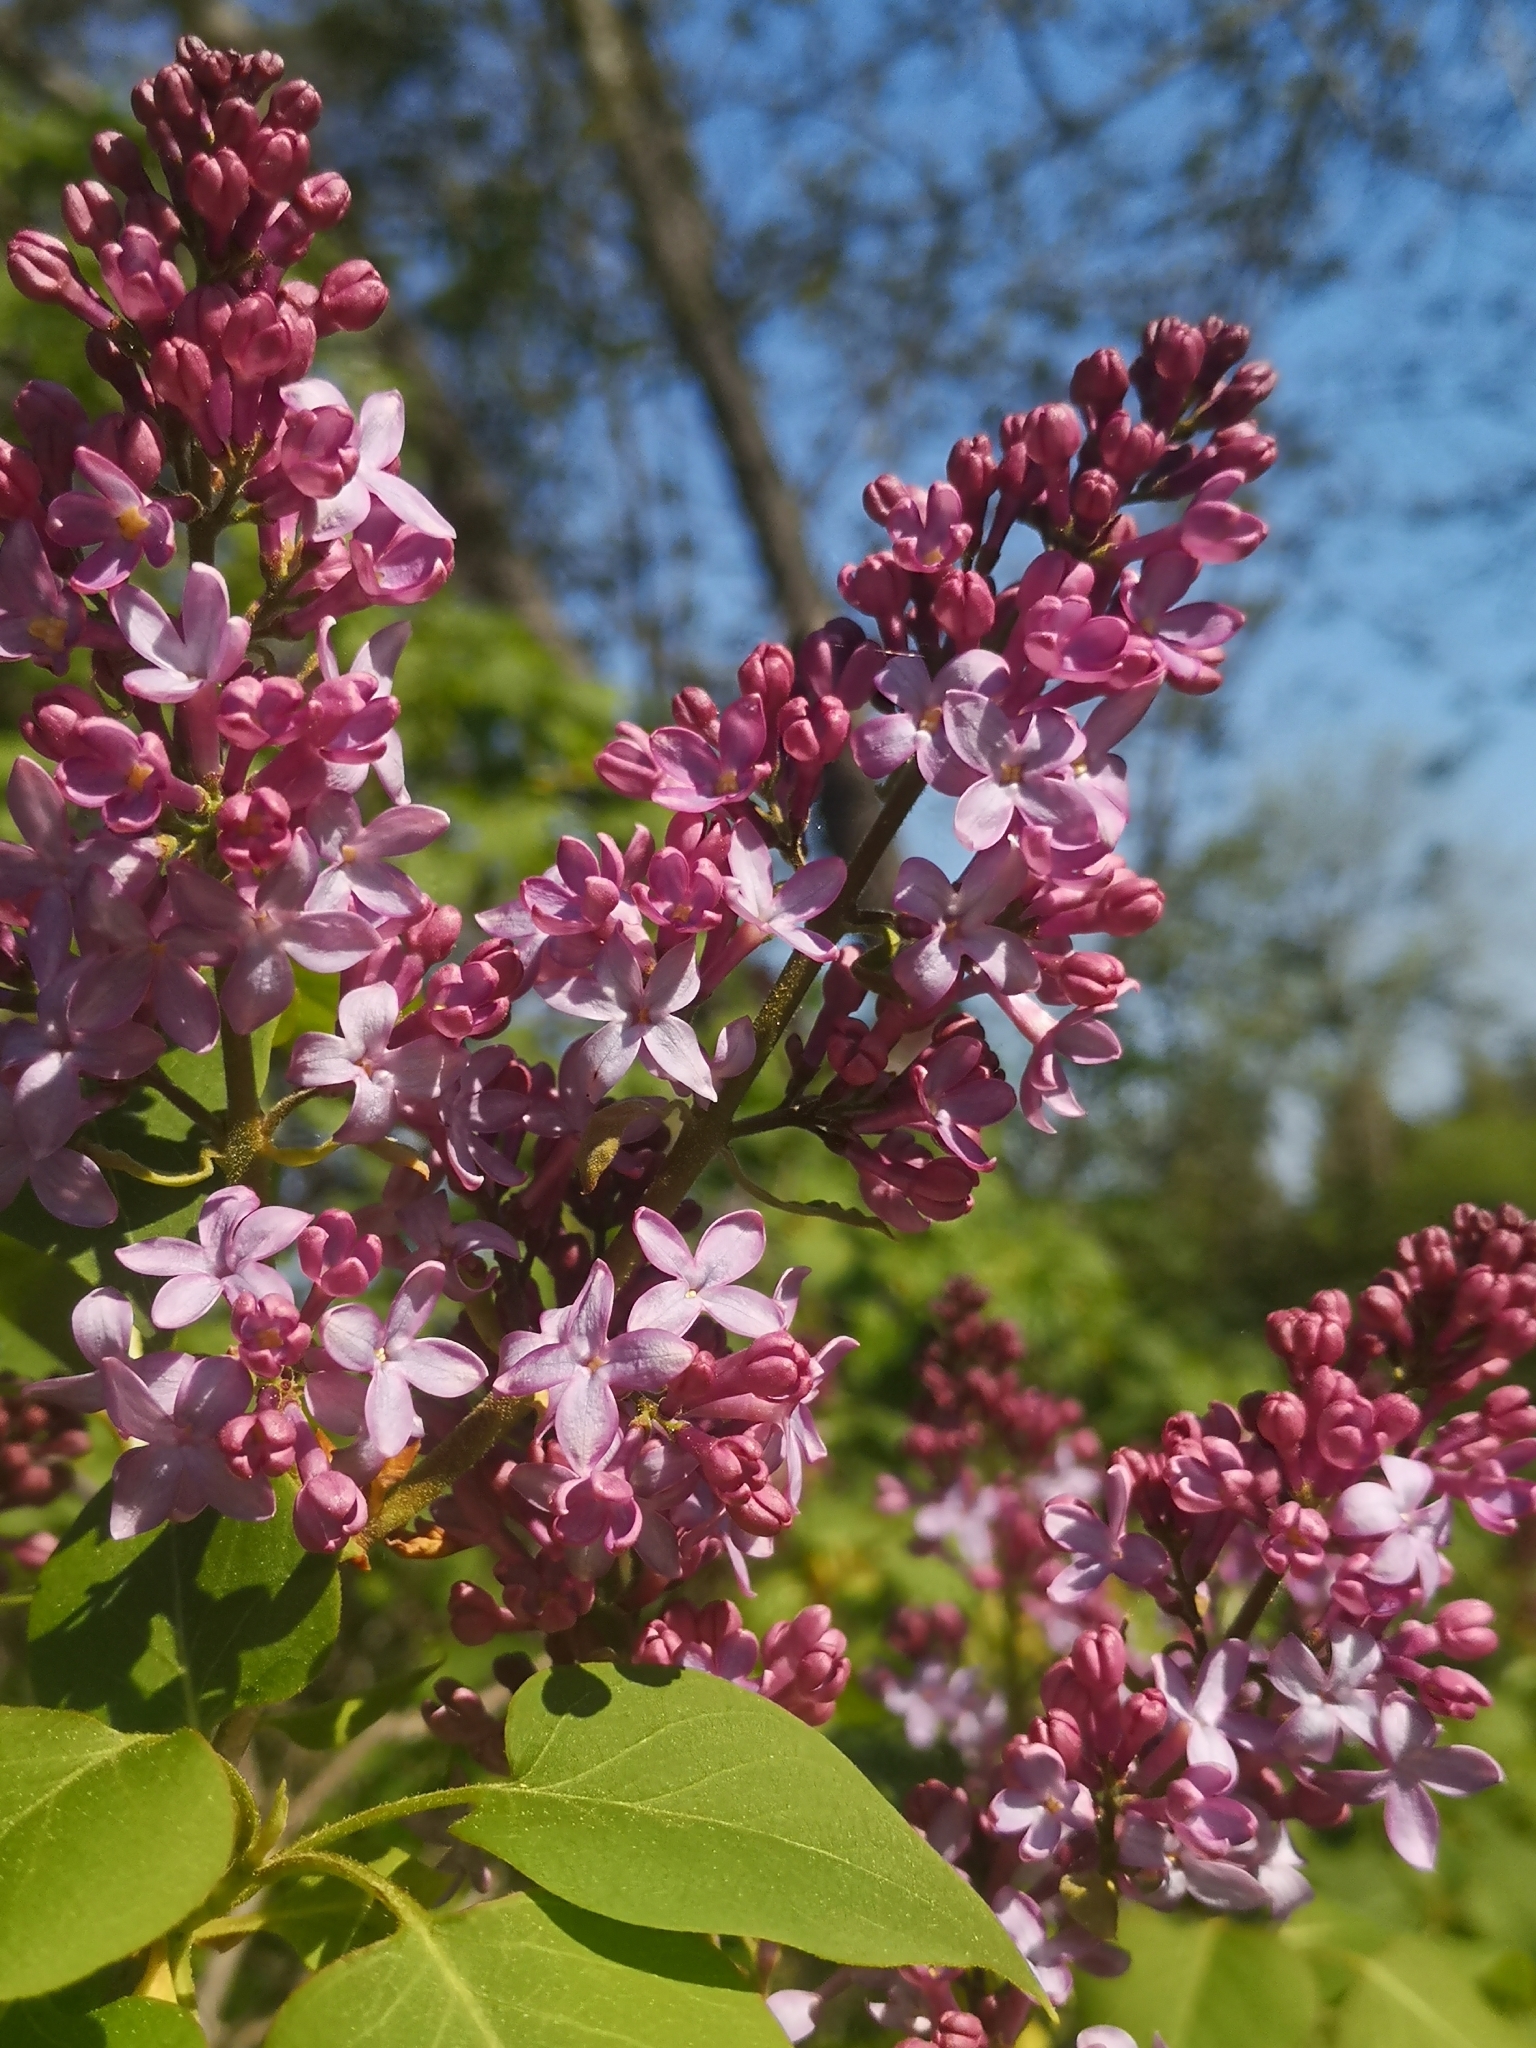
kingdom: Plantae
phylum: Tracheophyta
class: Magnoliopsida
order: Lamiales
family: Oleaceae
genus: Syringa
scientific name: Syringa vulgaris
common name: Common lilac
